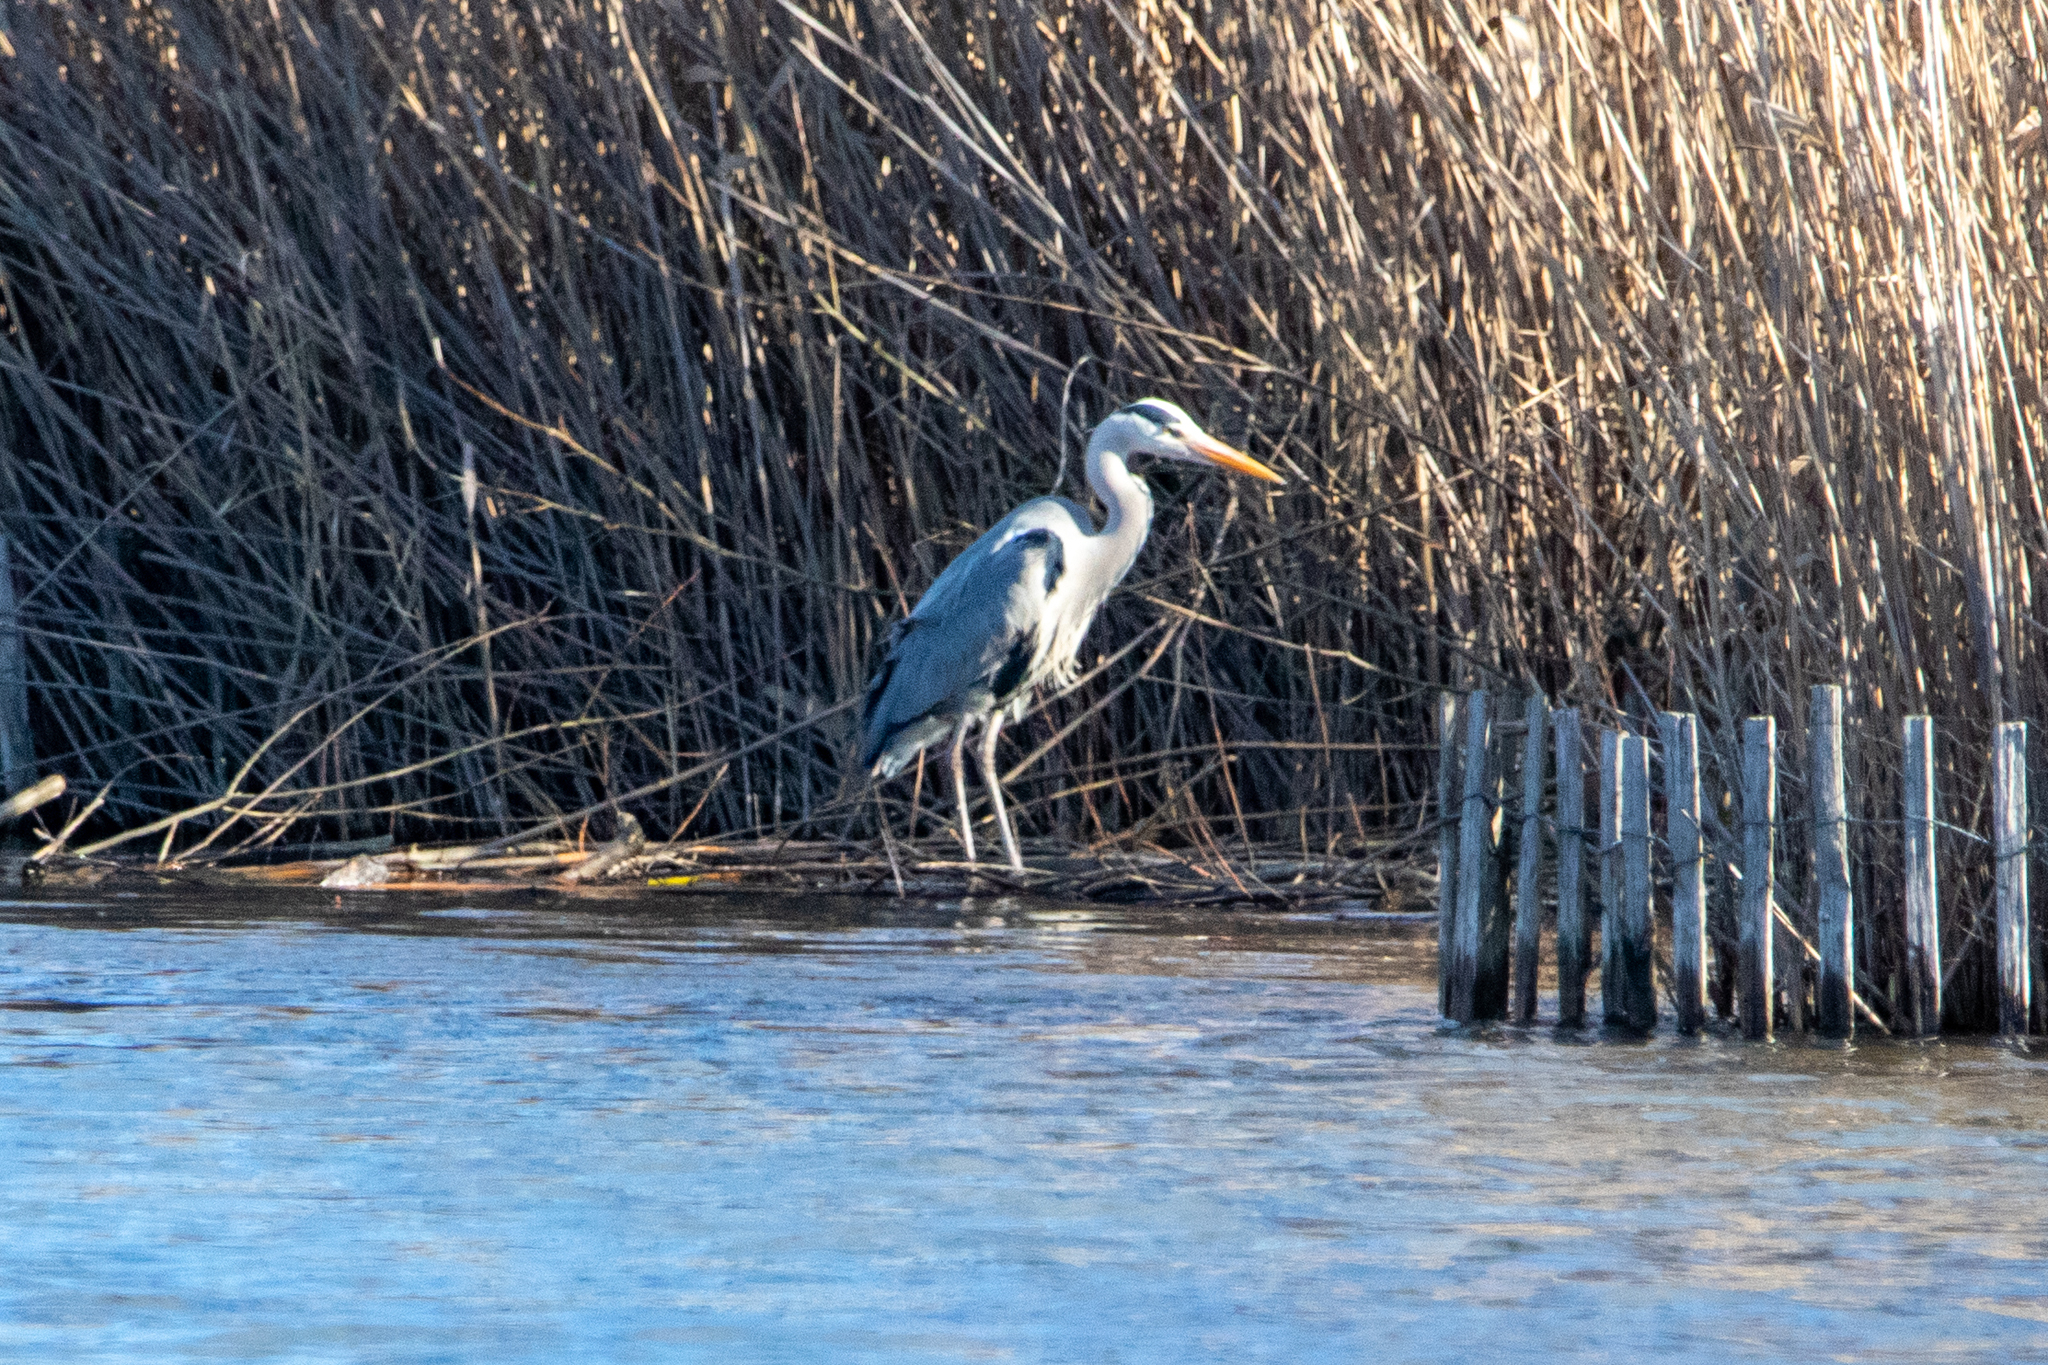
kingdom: Animalia
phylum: Chordata
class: Aves
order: Pelecaniformes
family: Ardeidae
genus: Ardea
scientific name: Ardea cinerea
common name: Grey heron
